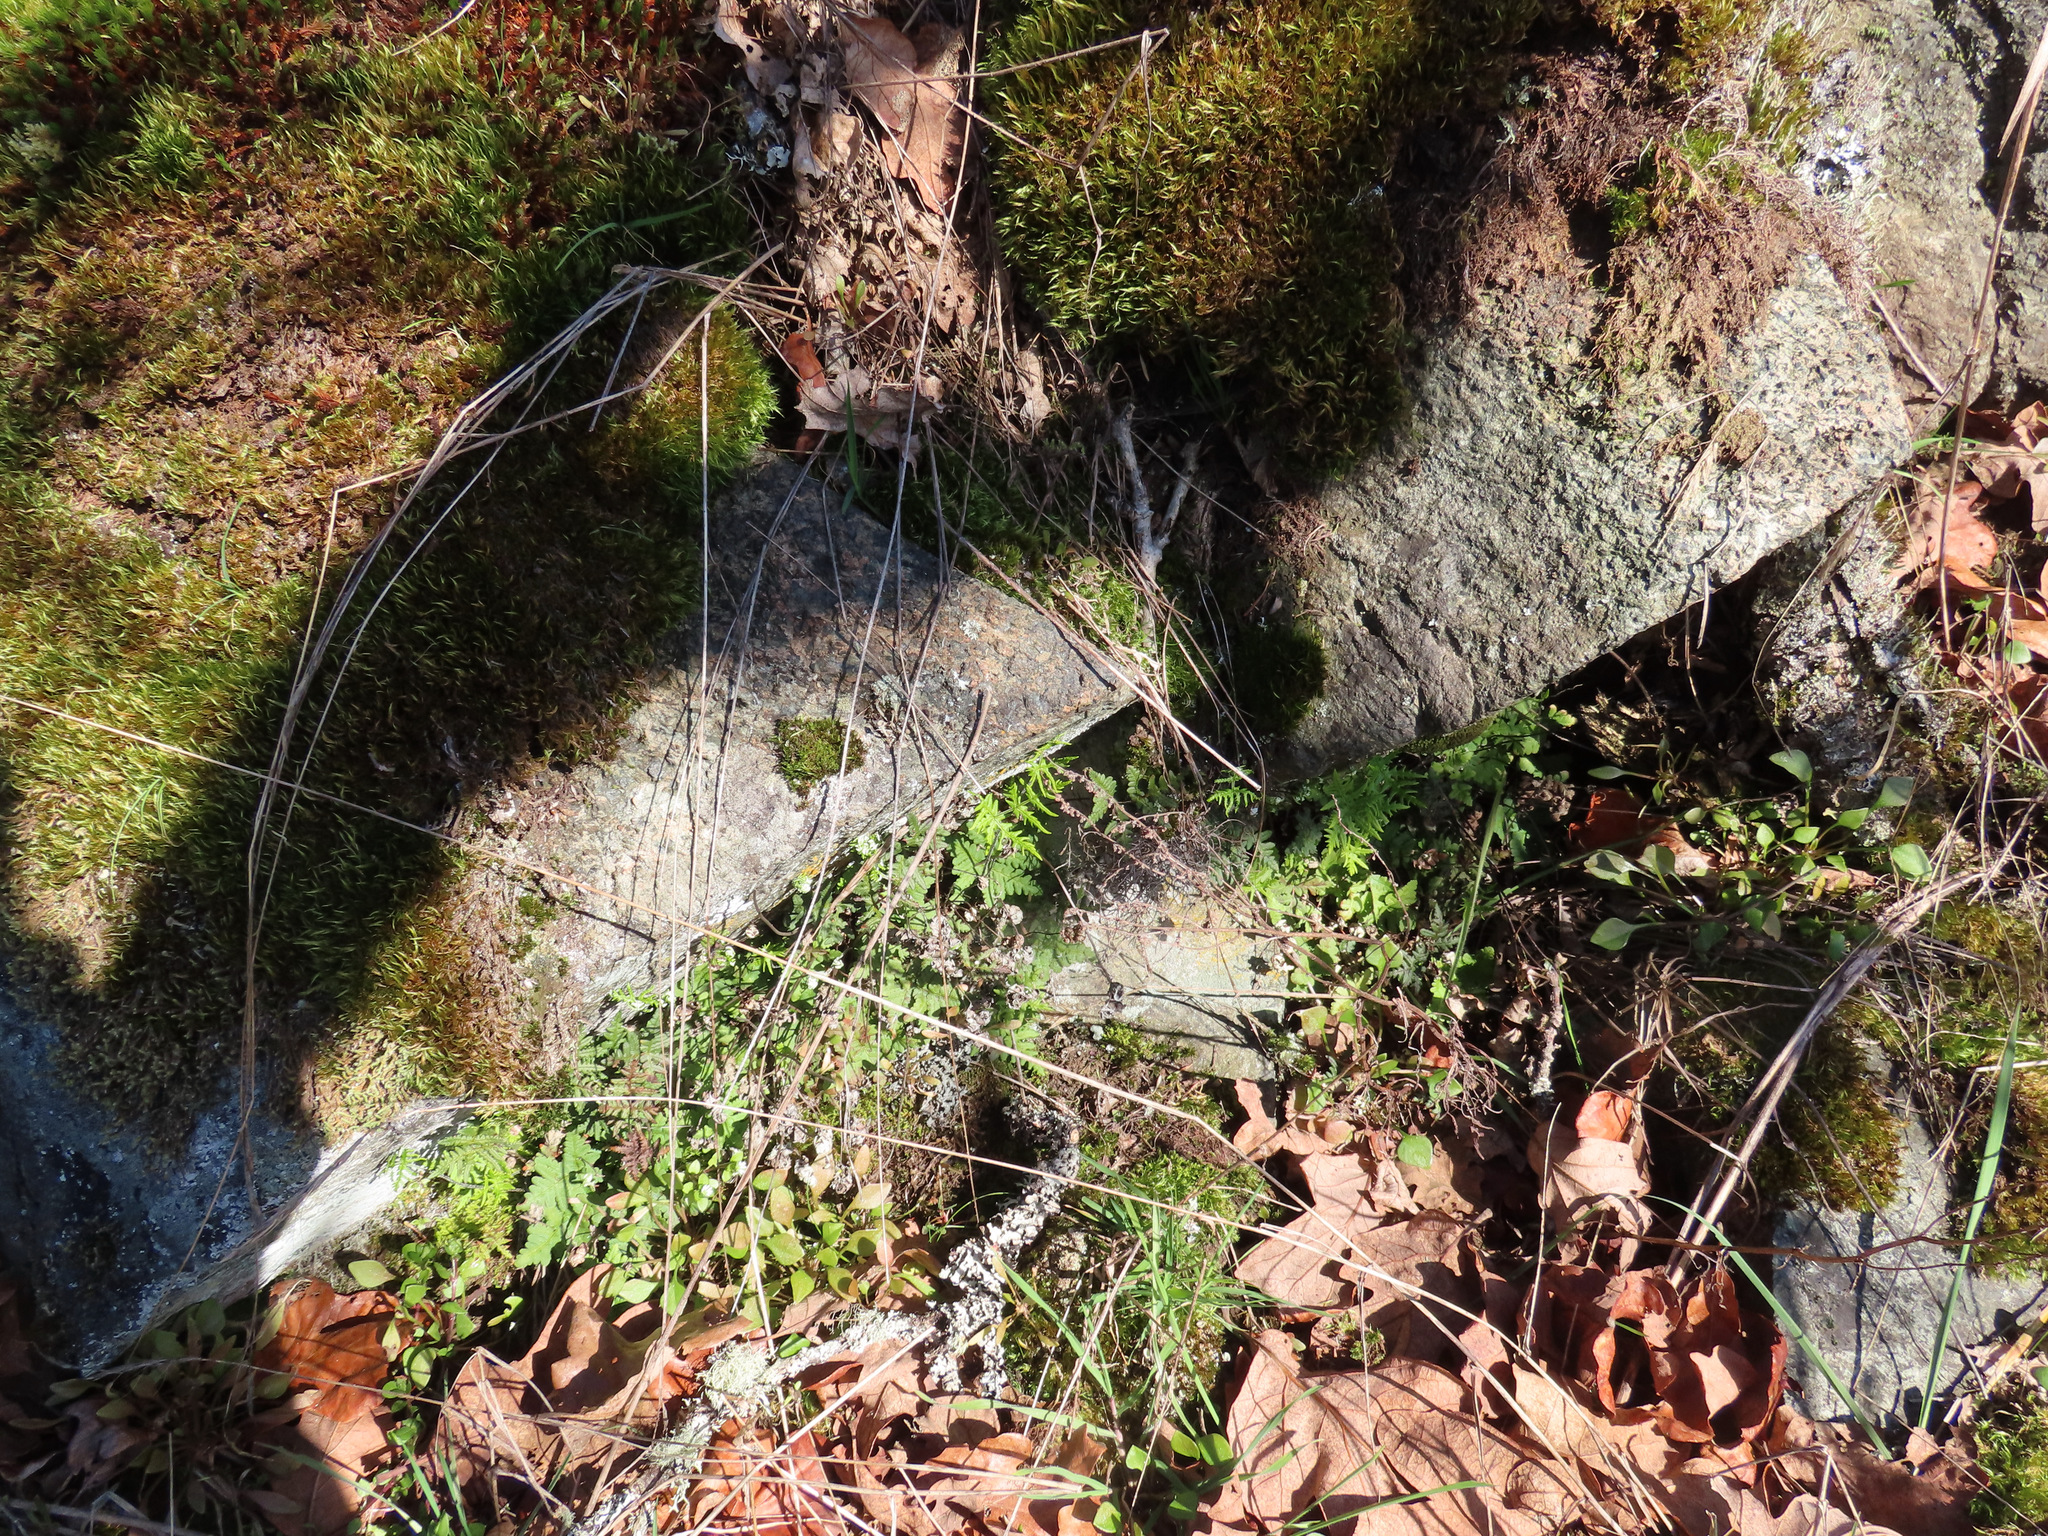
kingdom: Plantae
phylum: Tracheophyta
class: Polypodiopsida
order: Polypodiales
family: Pteridaceae
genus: Pentagramma
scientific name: Pentagramma triangularis
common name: Gold fern
